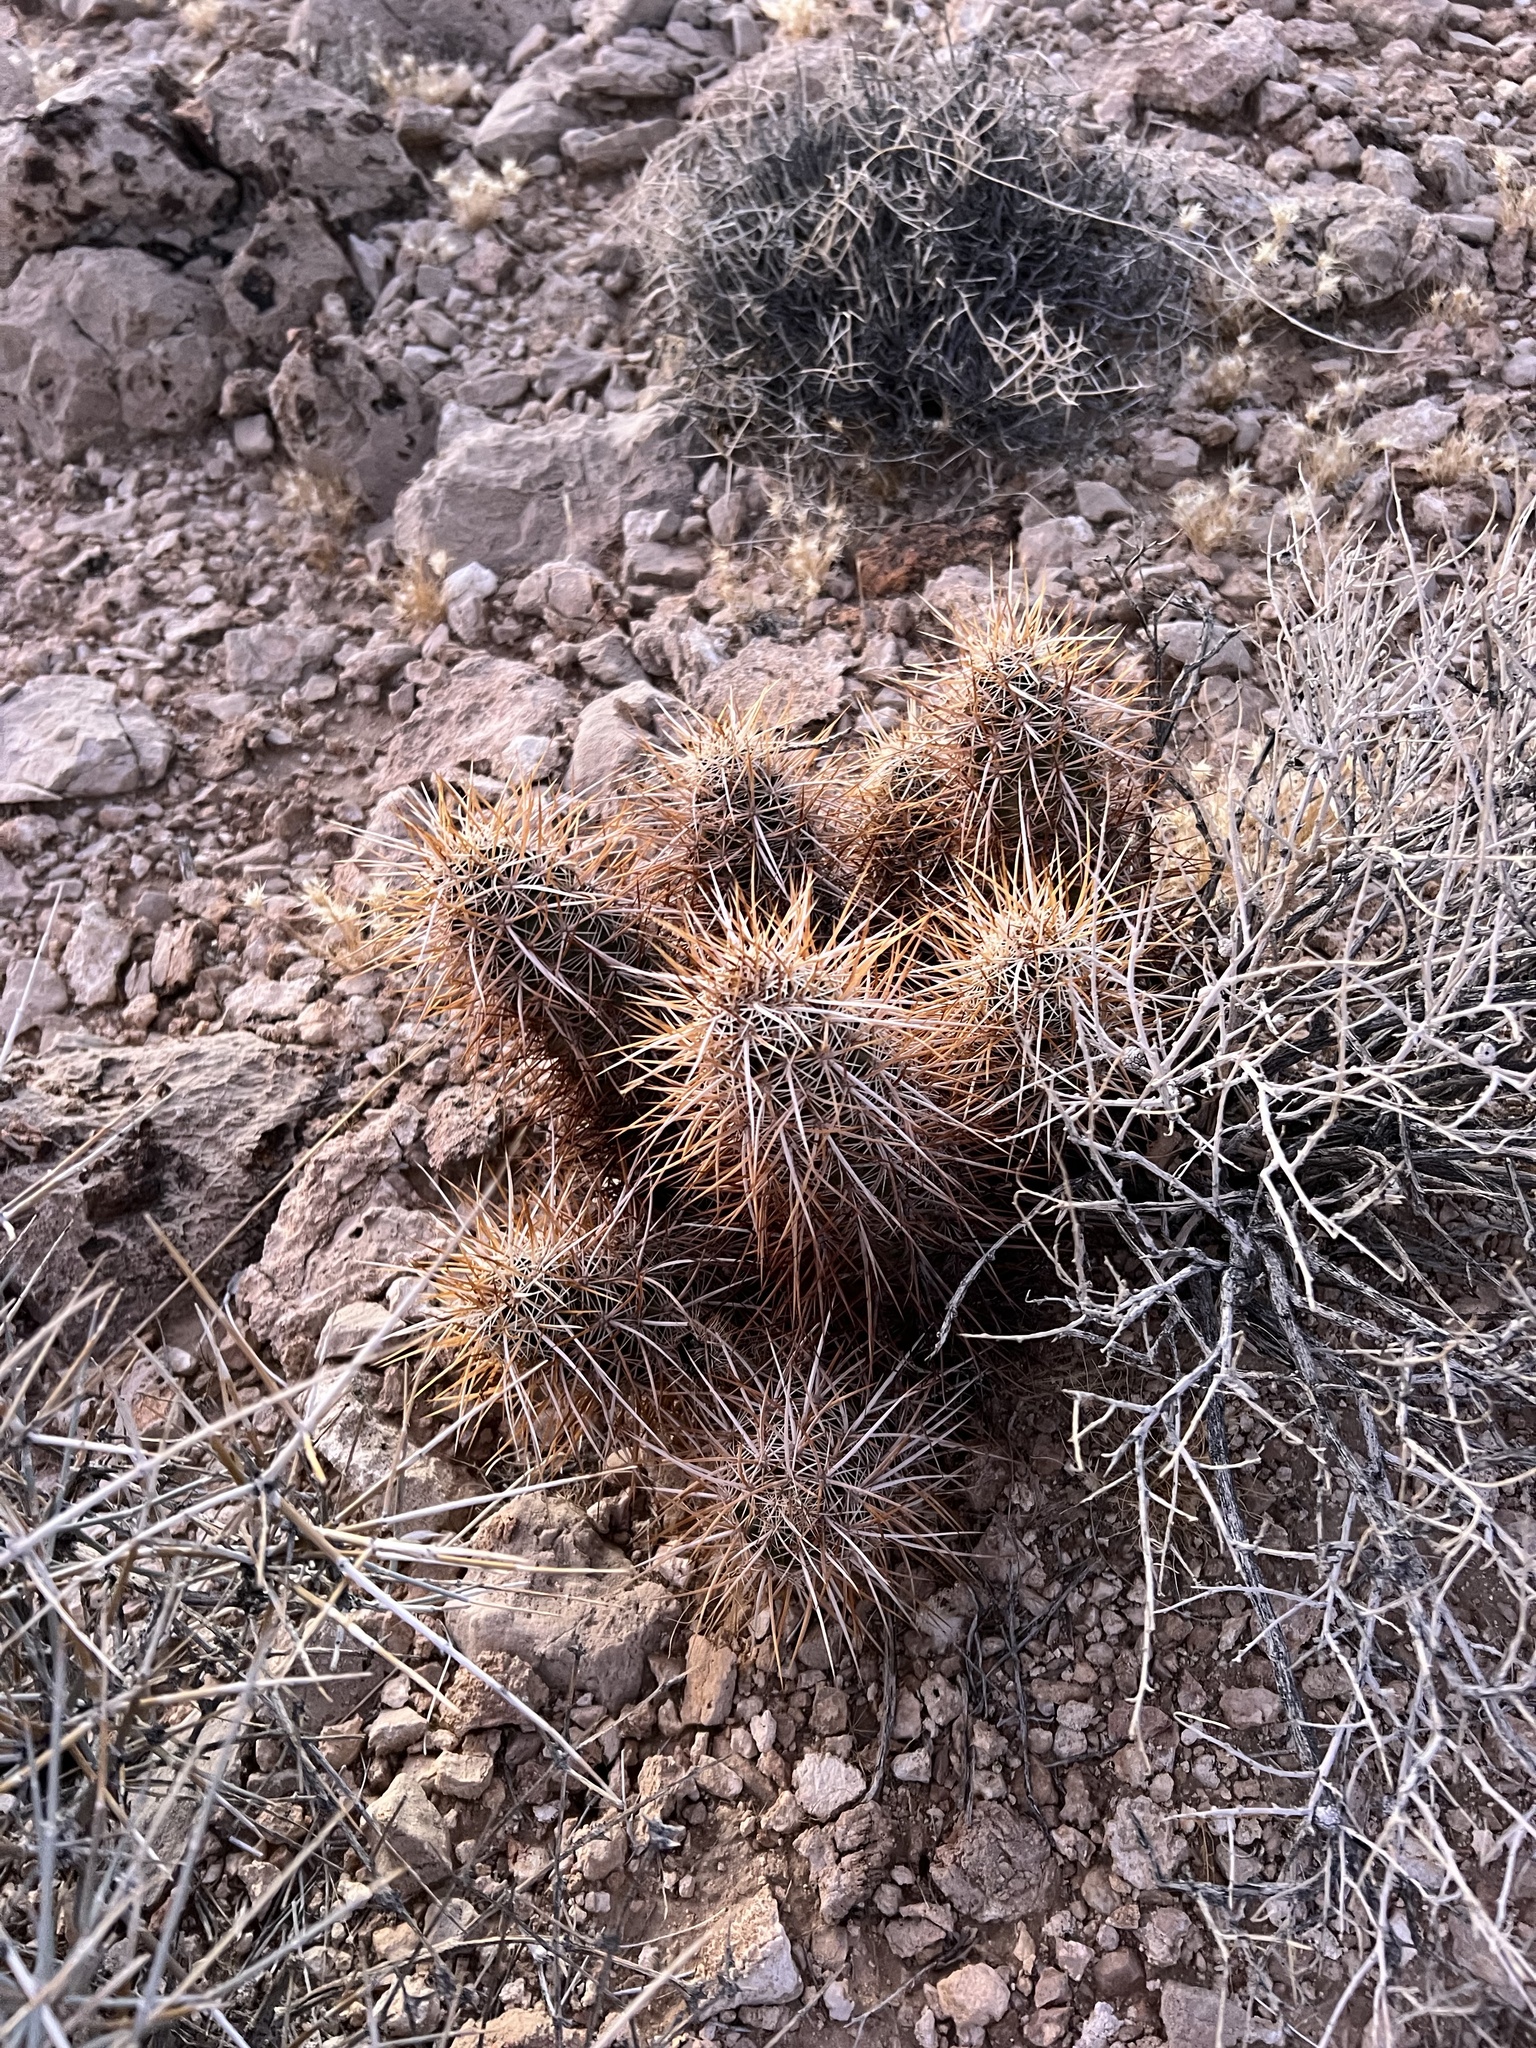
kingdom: Plantae
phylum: Tracheophyta
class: Magnoliopsida
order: Caryophyllales
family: Cactaceae
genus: Echinocereus
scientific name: Echinocereus engelmannii
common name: Engelmann's hedgehog cactus
